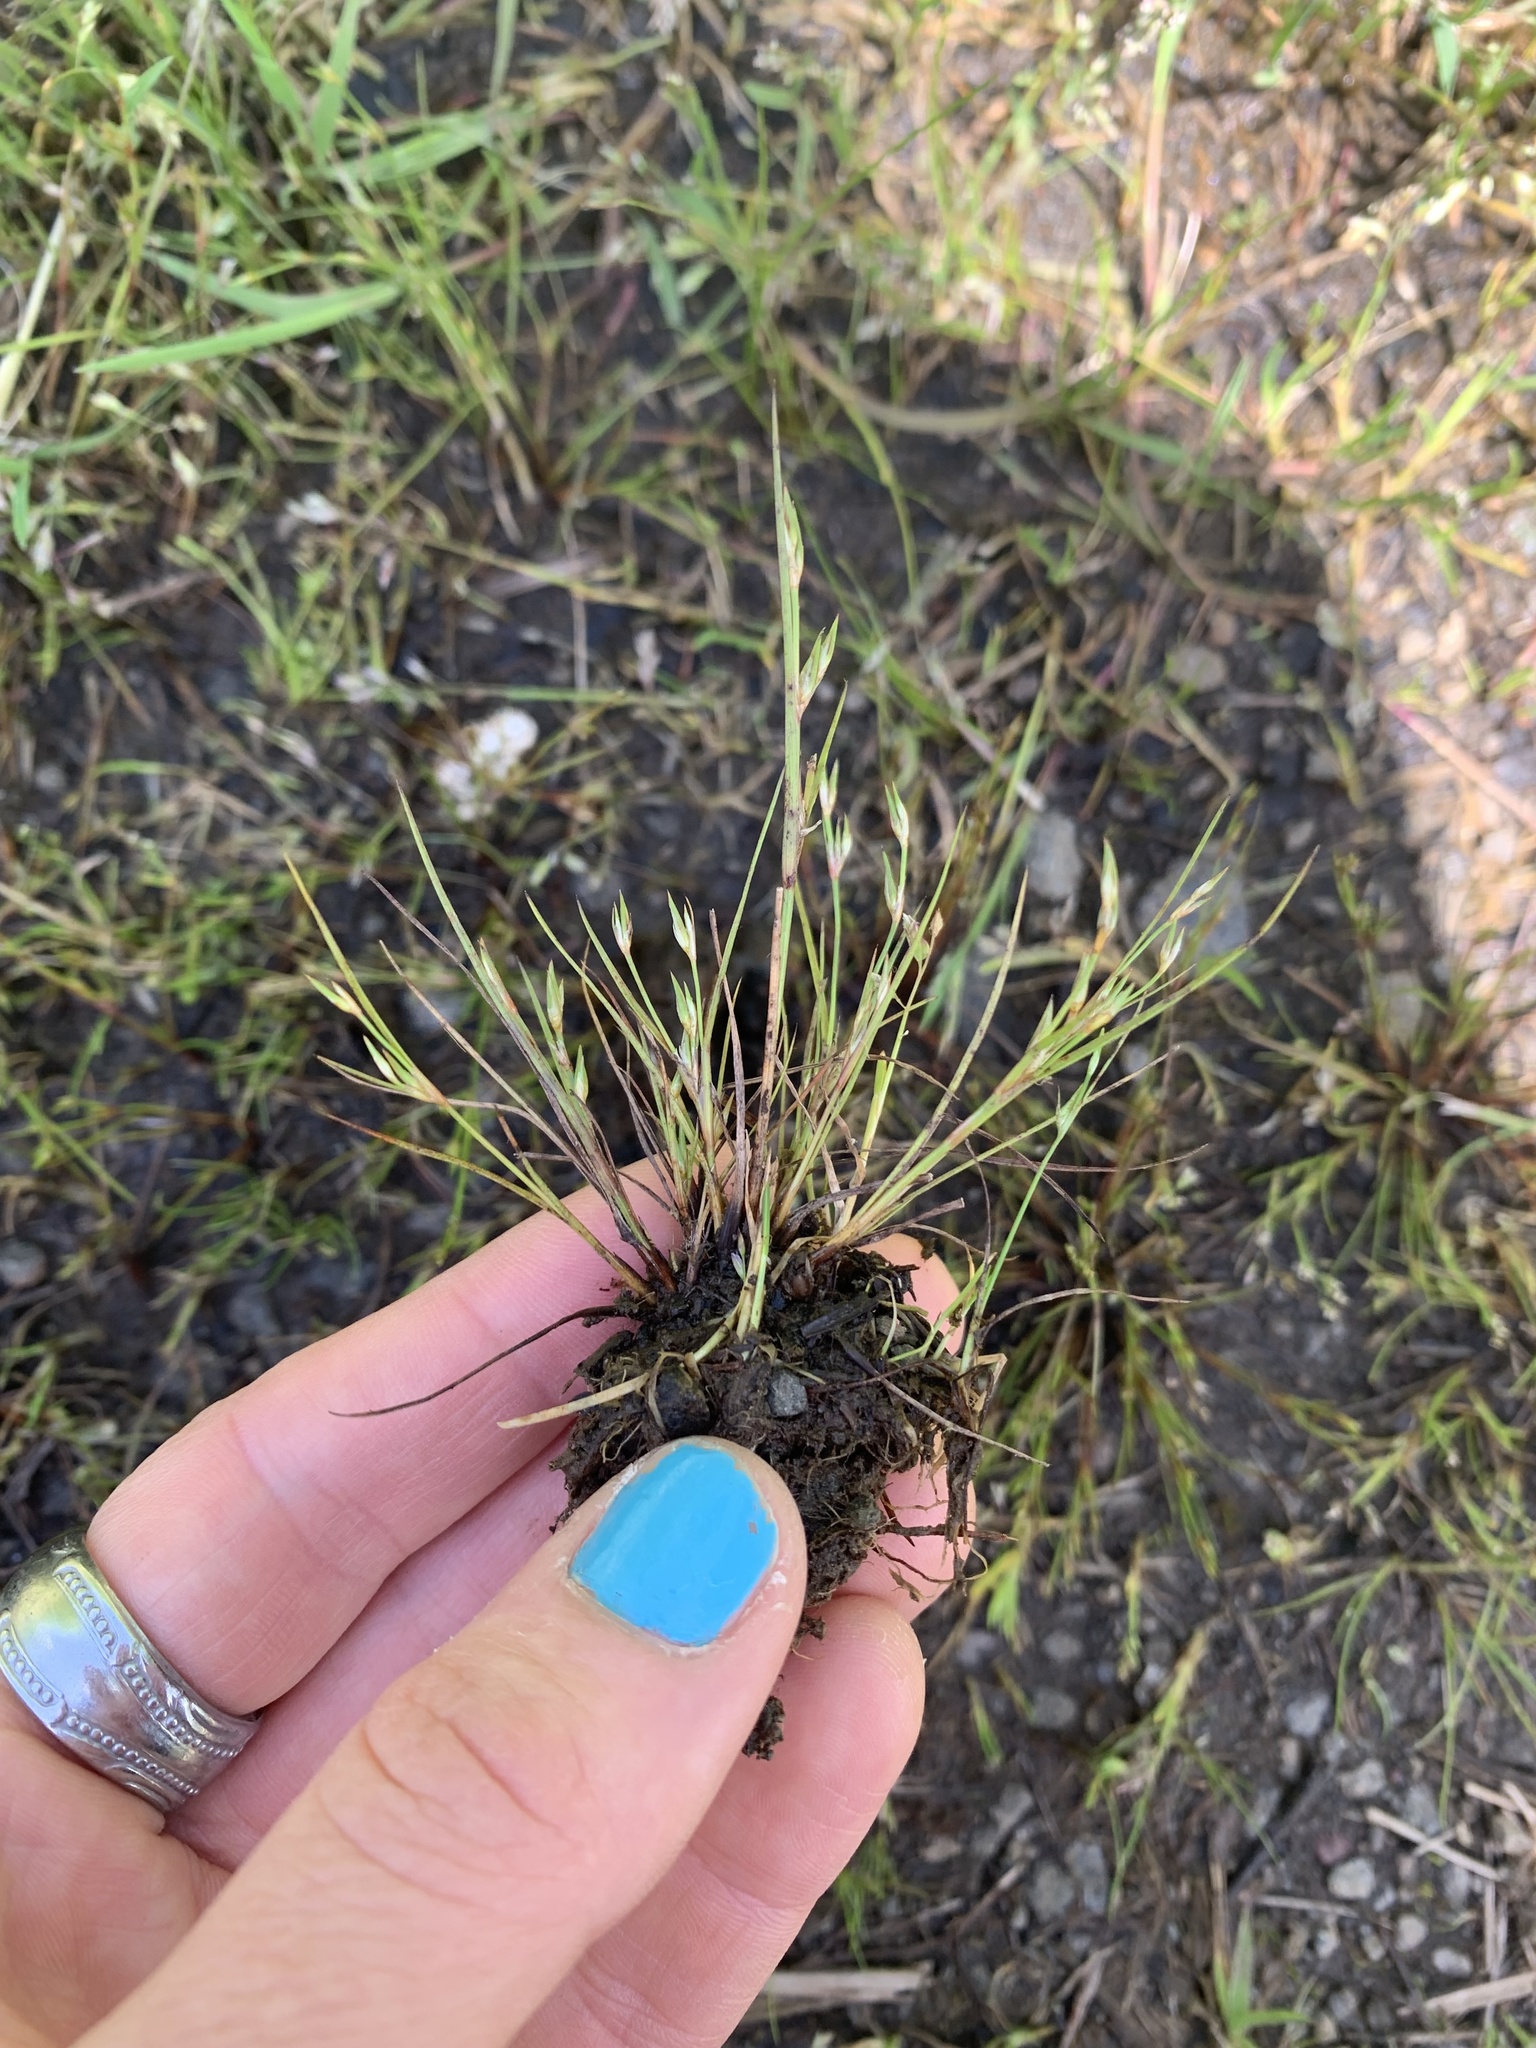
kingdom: Plantae
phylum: Tracheophyta
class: Liliopsida
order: Poales
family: Juncaceae
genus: Juncus
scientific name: Juncus bufonius
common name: Toad rush
